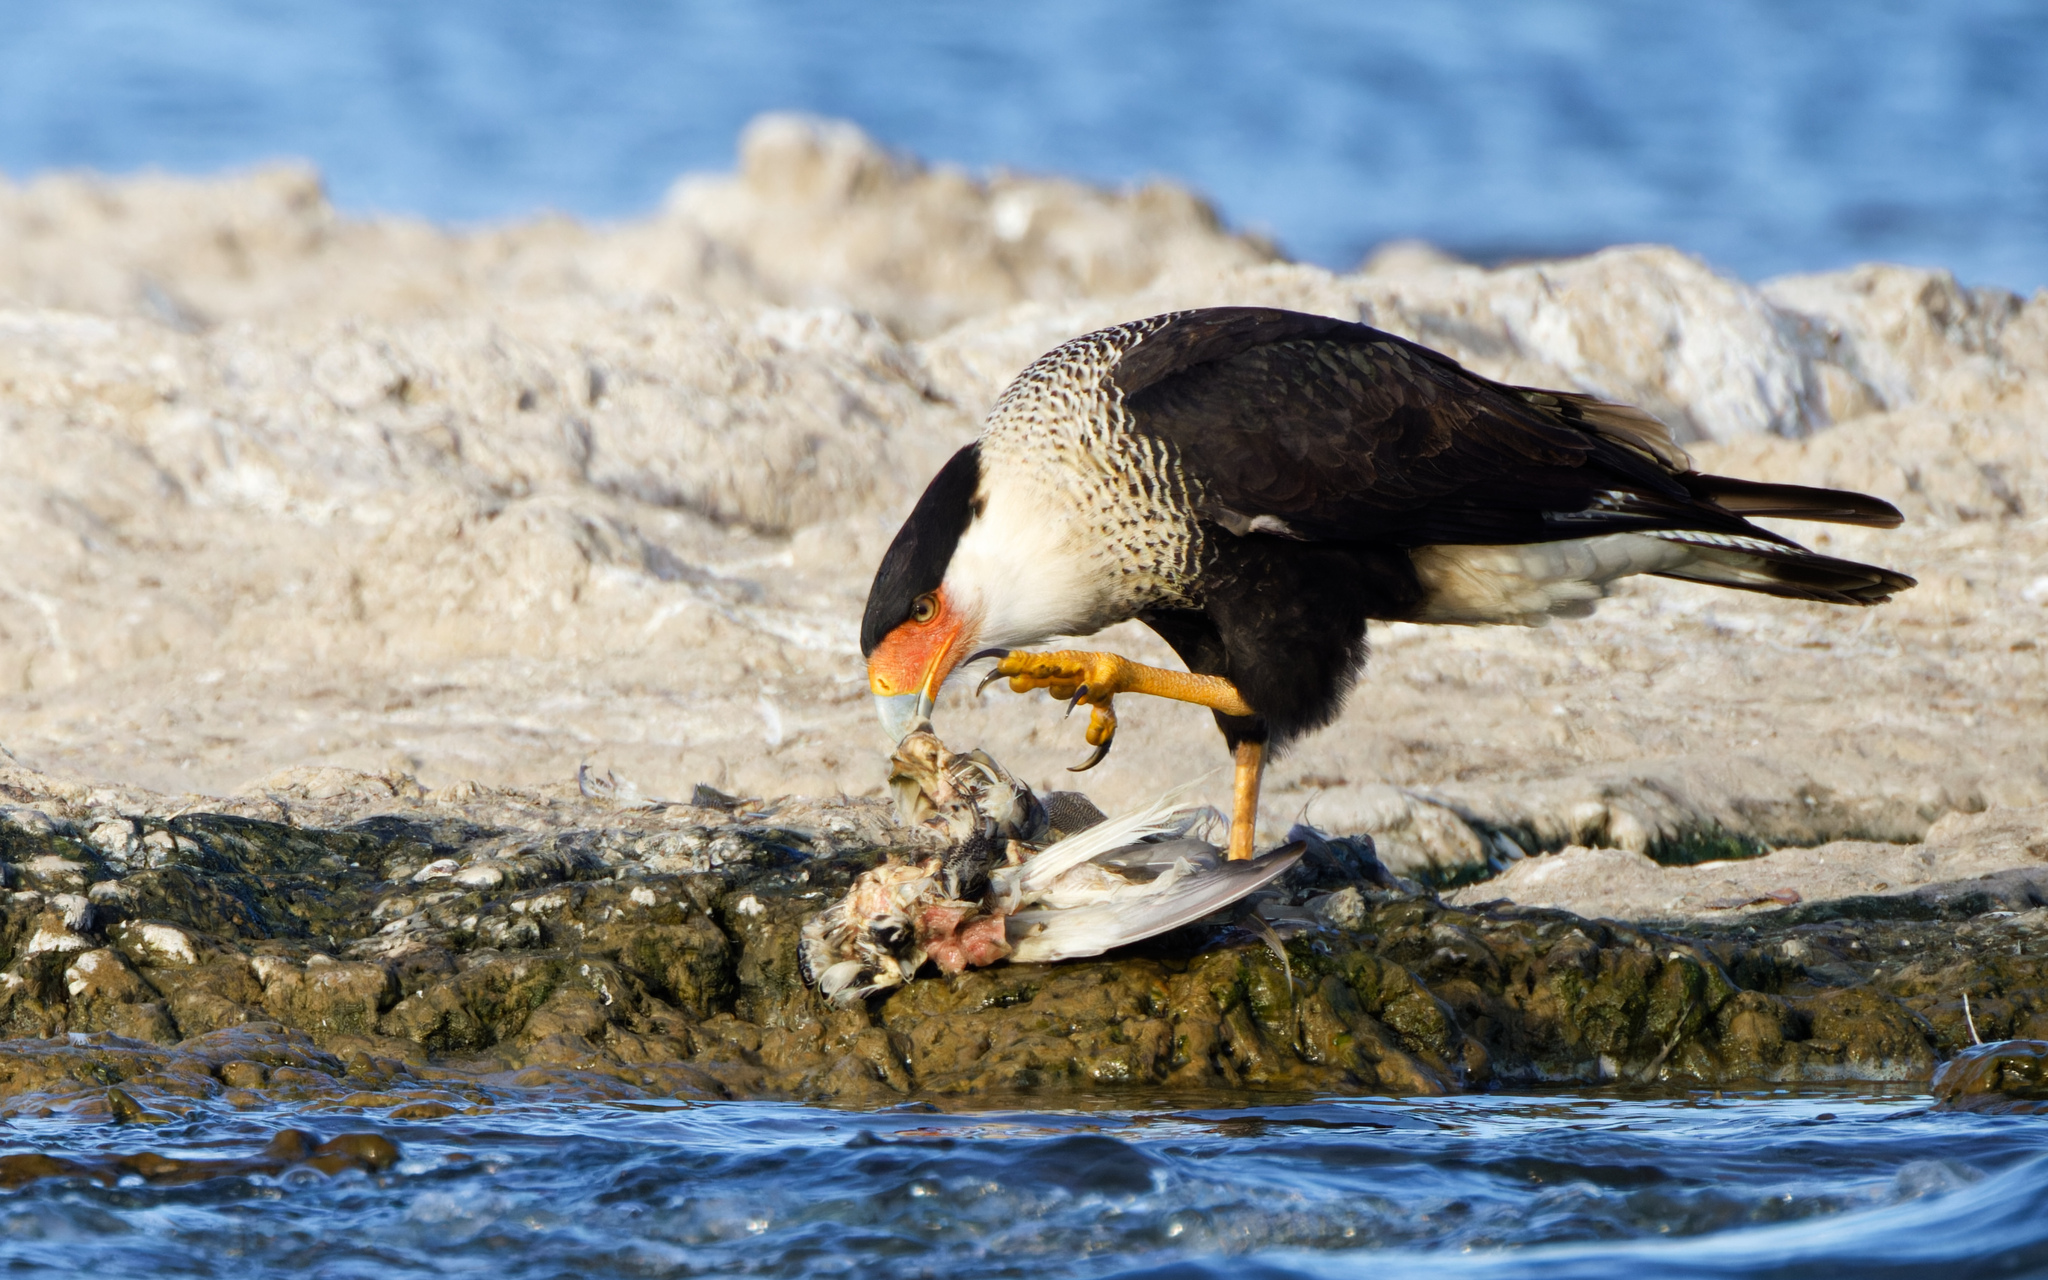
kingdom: Animalia
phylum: Chordata
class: Aves
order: Falconiformes
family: Falconidae
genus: Caracara
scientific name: Caracara plancus
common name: Southern caracara
